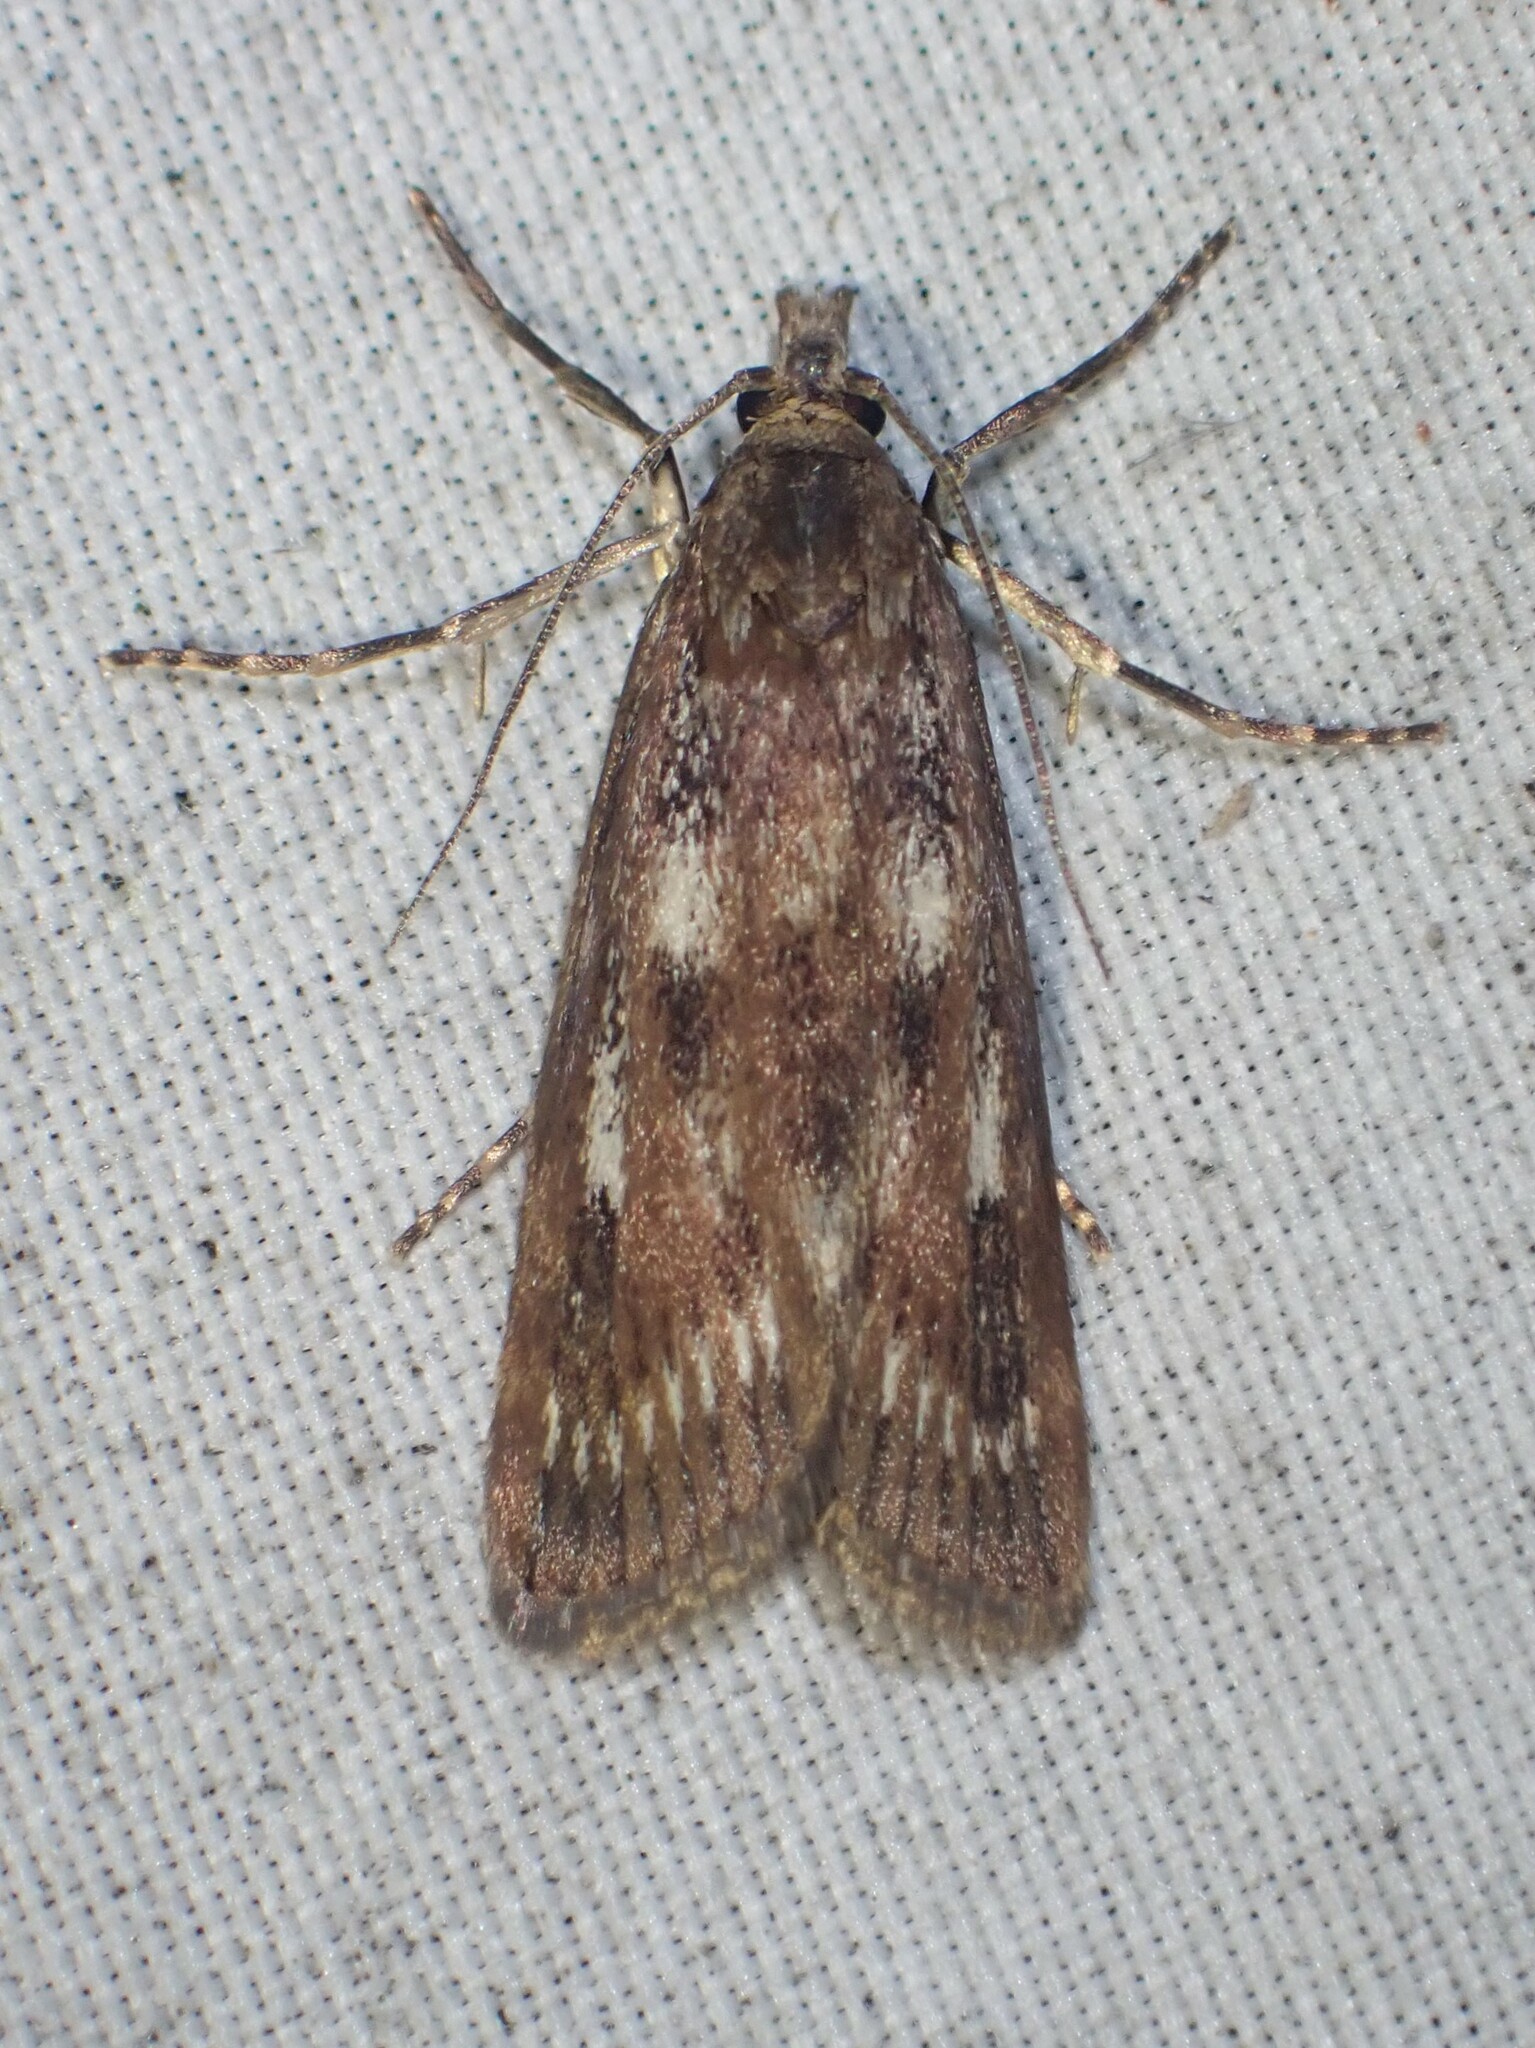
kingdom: Animalia
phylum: Arthropoda
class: Insecta
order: Lepidoptera
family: Crambidae
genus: Occidentalia
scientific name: Occidentalia comptulatalis
